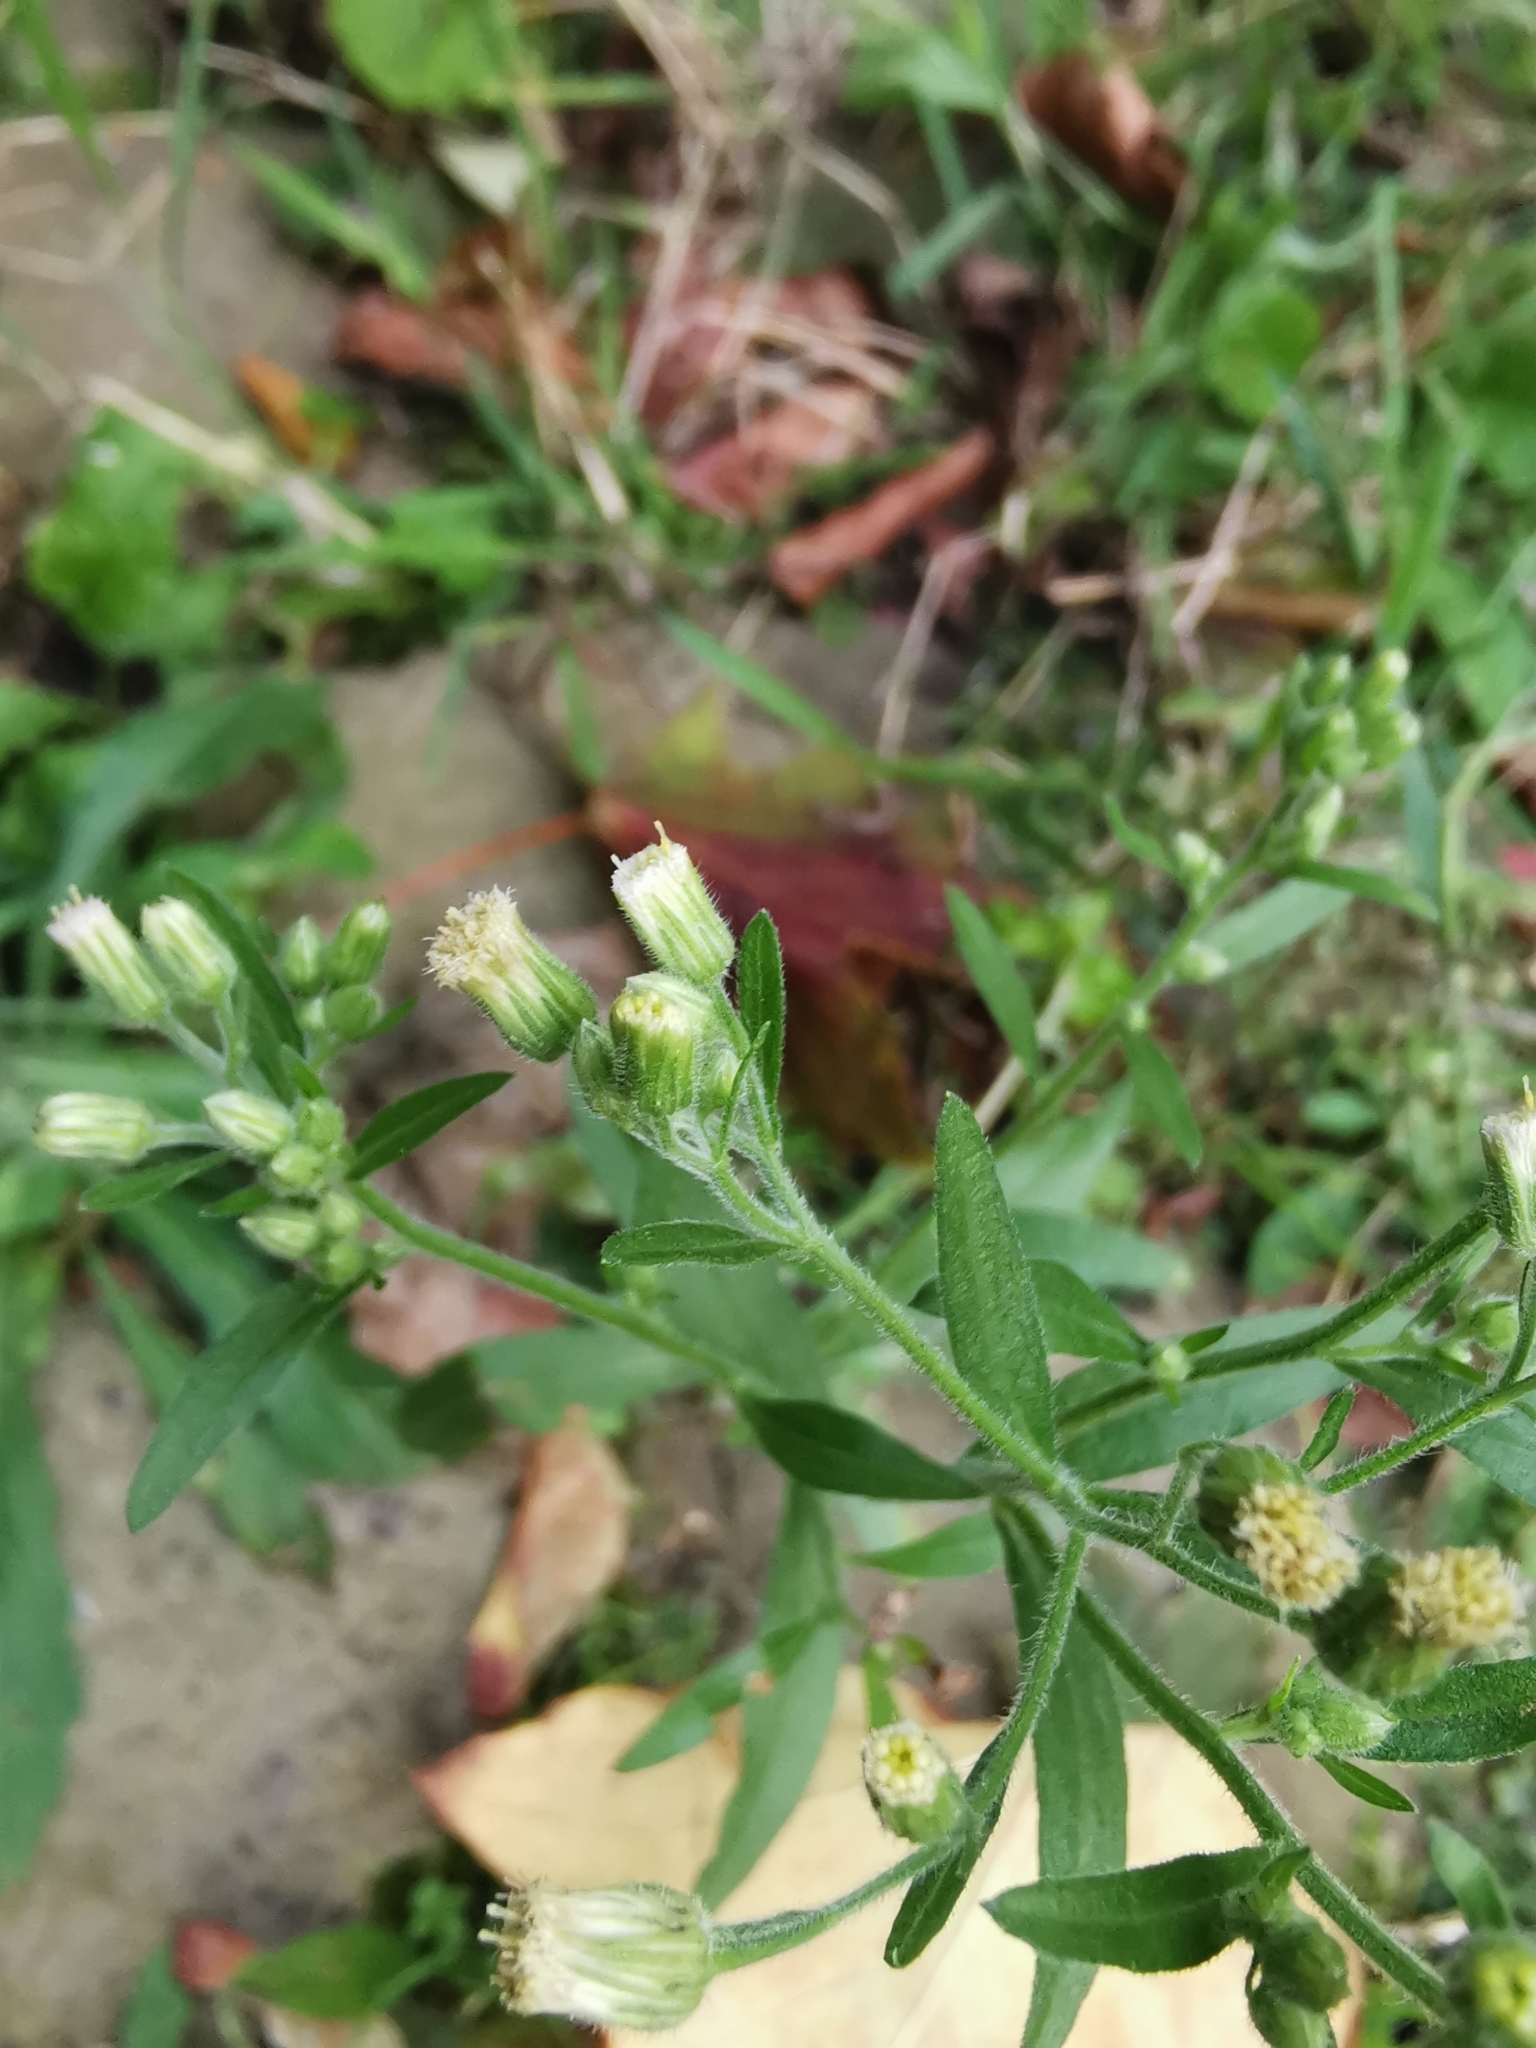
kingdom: Plantae
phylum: Tracheophyta
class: Magnoliopsida
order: Asterales
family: Asteraceae
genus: Erigeron
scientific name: Erigeron sumatrensis
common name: Daisy
